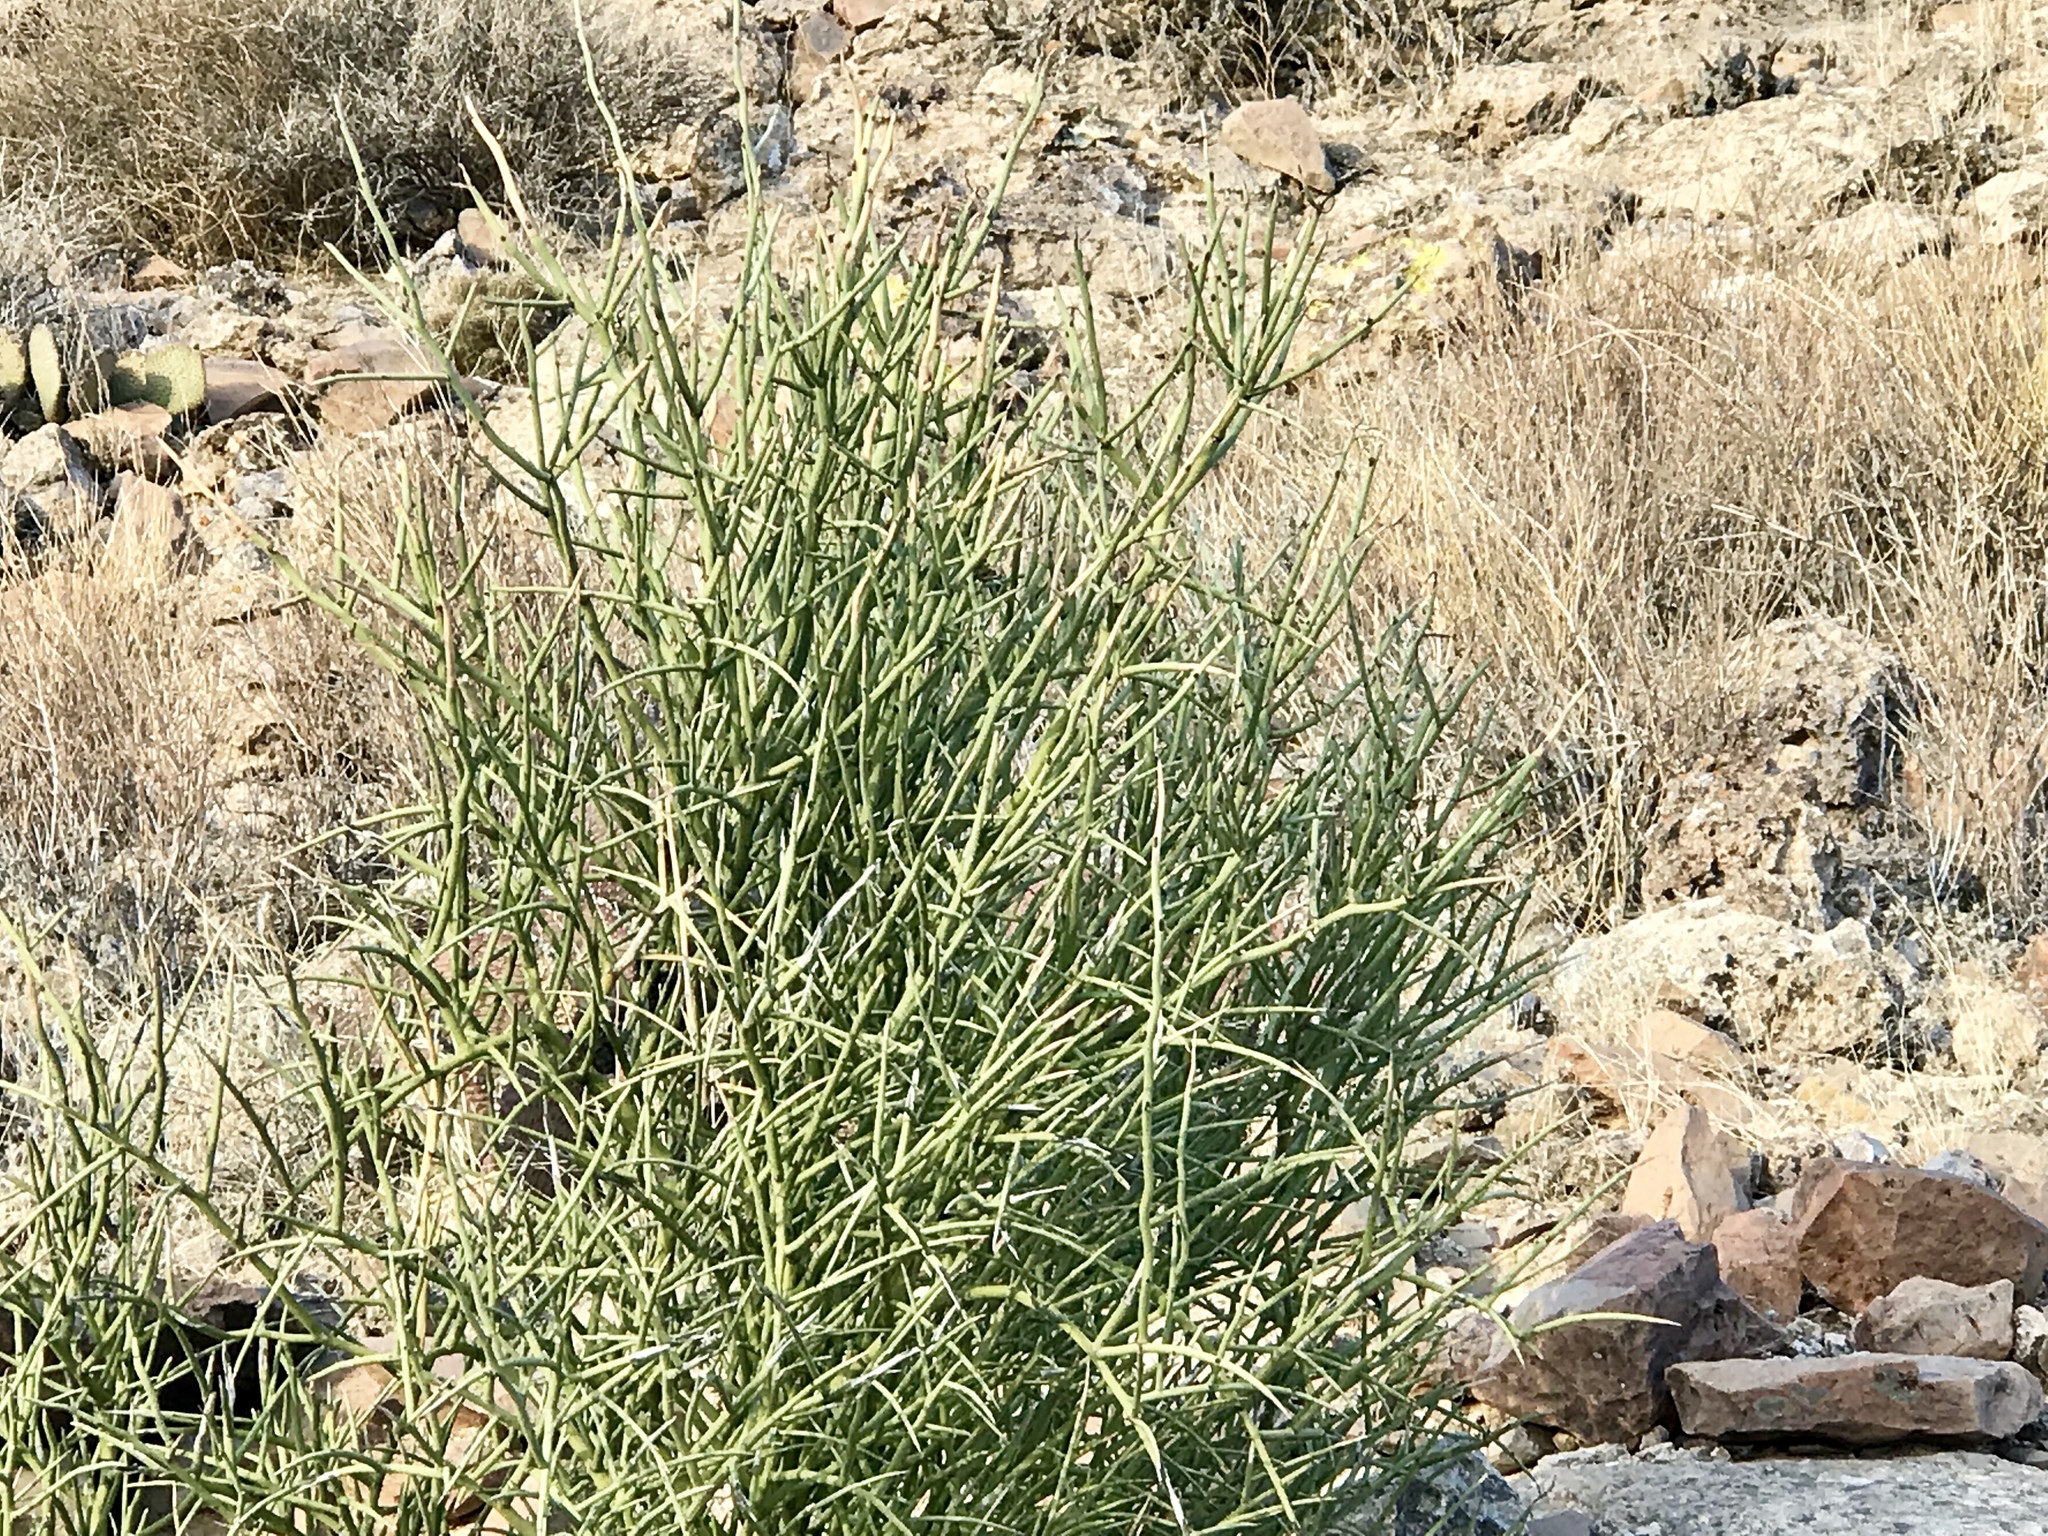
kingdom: Plantae
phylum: Tracheophyta
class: Magnoliopsida
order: Celastrales
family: Celastraceae
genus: Canotia
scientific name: Canotia holacantha
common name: Crucifixion thorns
